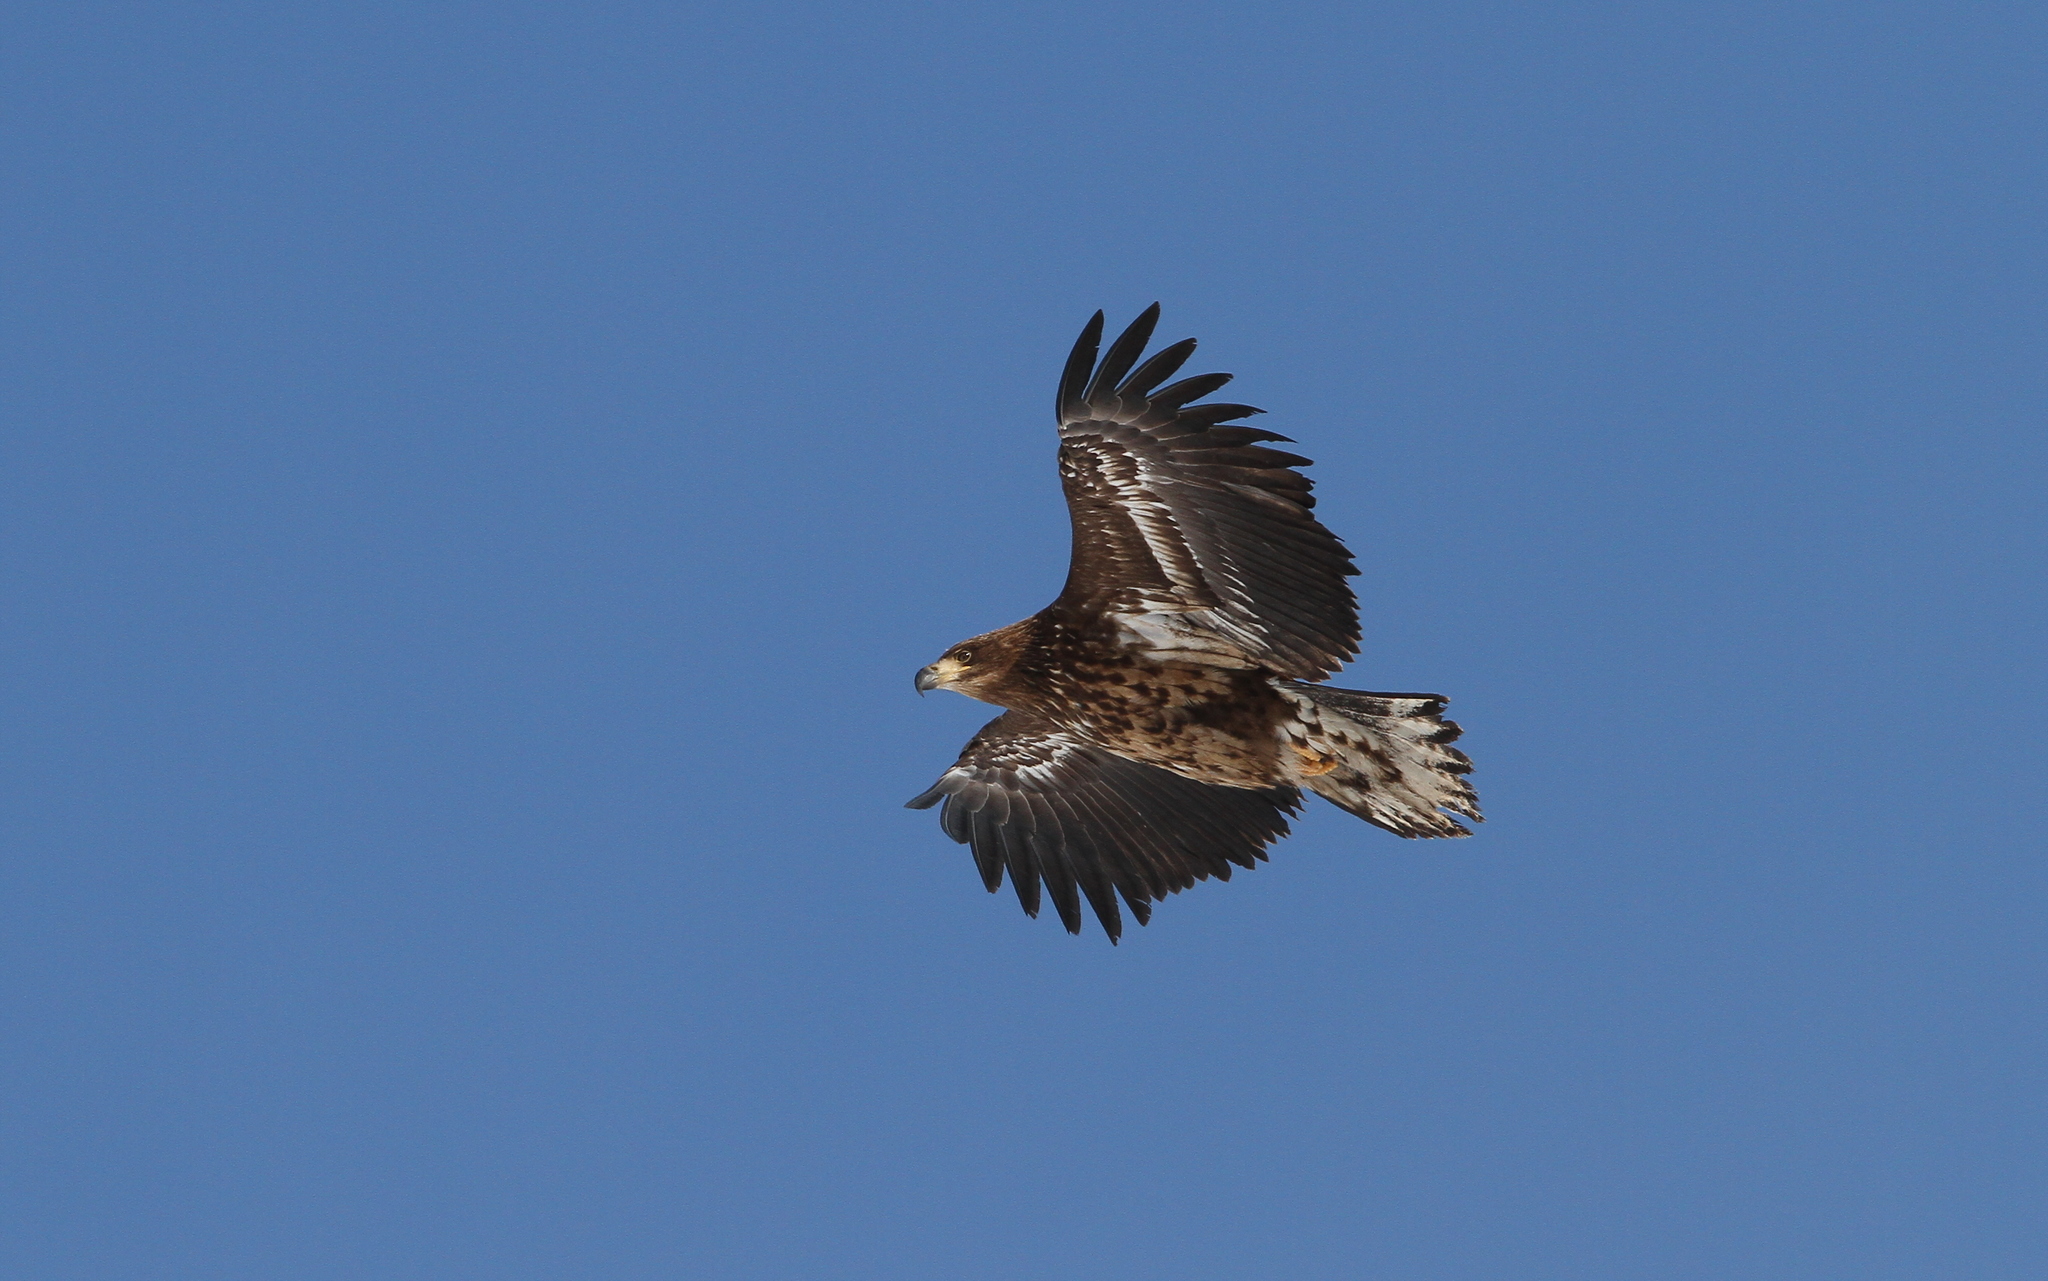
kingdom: Animalia
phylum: Chordata
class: Aves
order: Accipitriformes
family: Accipitridae
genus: Haliaeetus
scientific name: Haliaeetus albicilla
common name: White-tailed eagle
